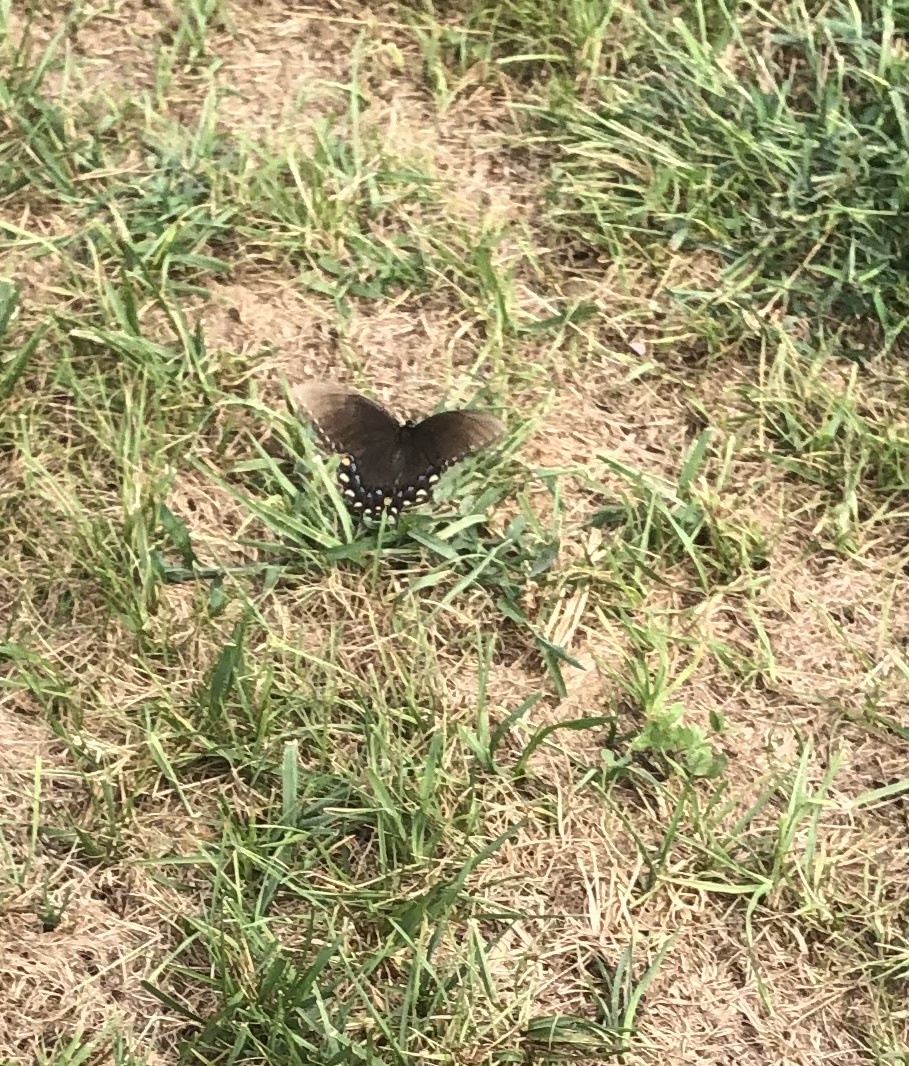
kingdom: Animalia
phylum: Arthropoda
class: Insecta
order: Lepidoptera
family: Papilionidae
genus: Papilio
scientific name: Papilio glaucus
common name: Tiger swallowtail
